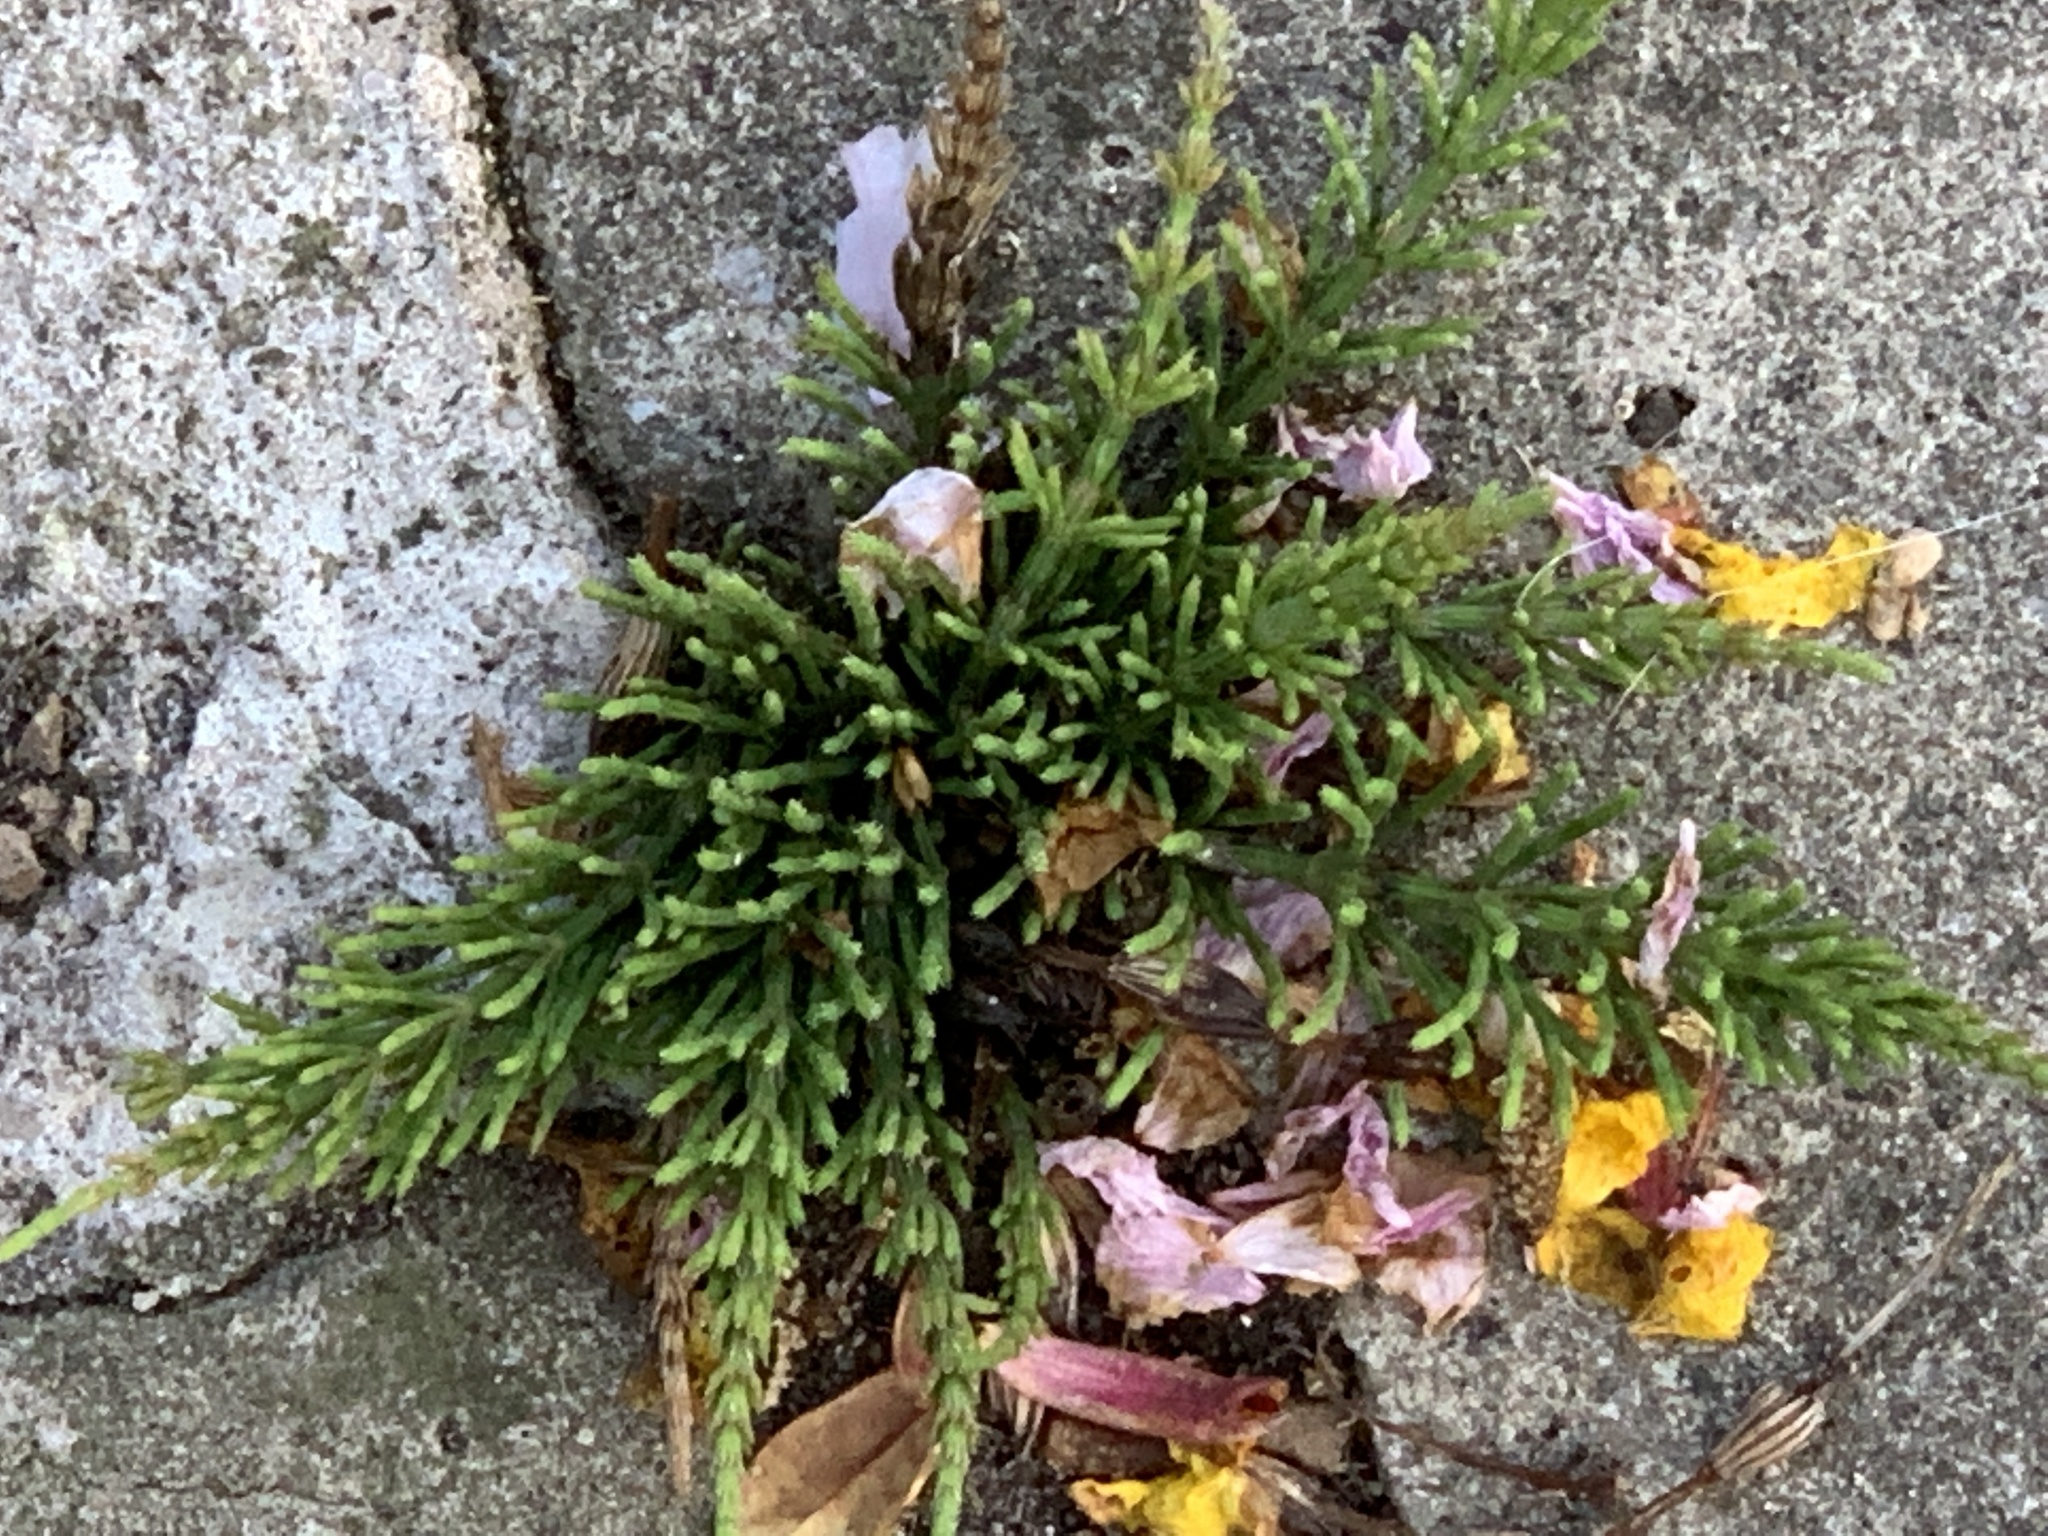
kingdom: Plantae
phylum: Tracheophyta
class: Polypodiopsida
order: Equisetales
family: Equisetaceae
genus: Equisetum
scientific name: Equisetum arvense
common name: Field horsetail
